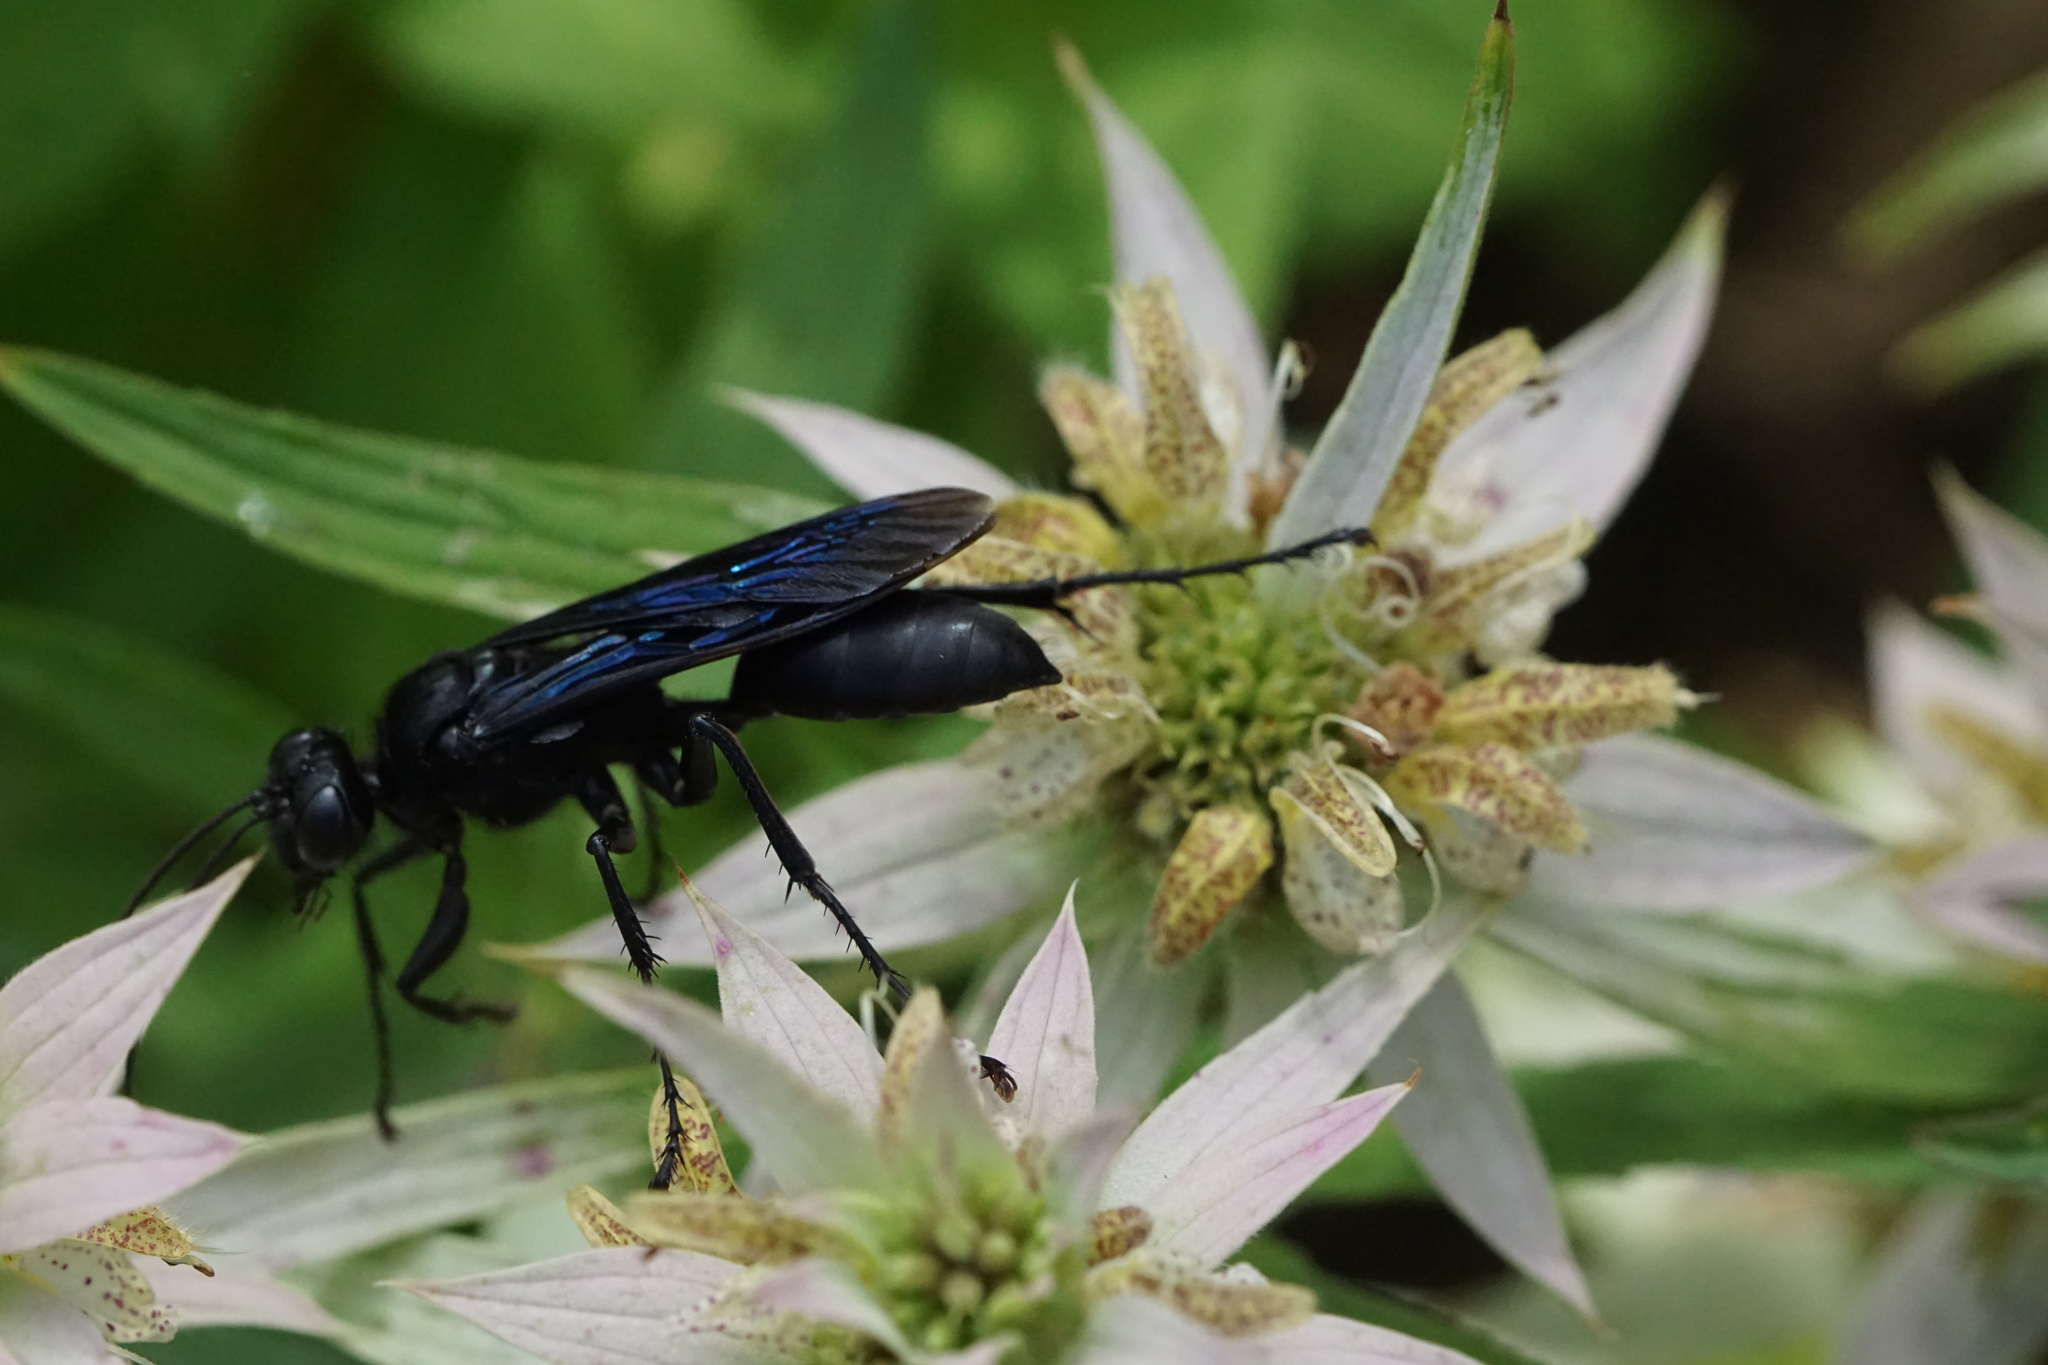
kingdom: Animalia
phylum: Arthropoda
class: Insecta
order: Hymenoptera
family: Sphecidae
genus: Sphex
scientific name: Sphex pensylvanicus
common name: Great black digger wasp
